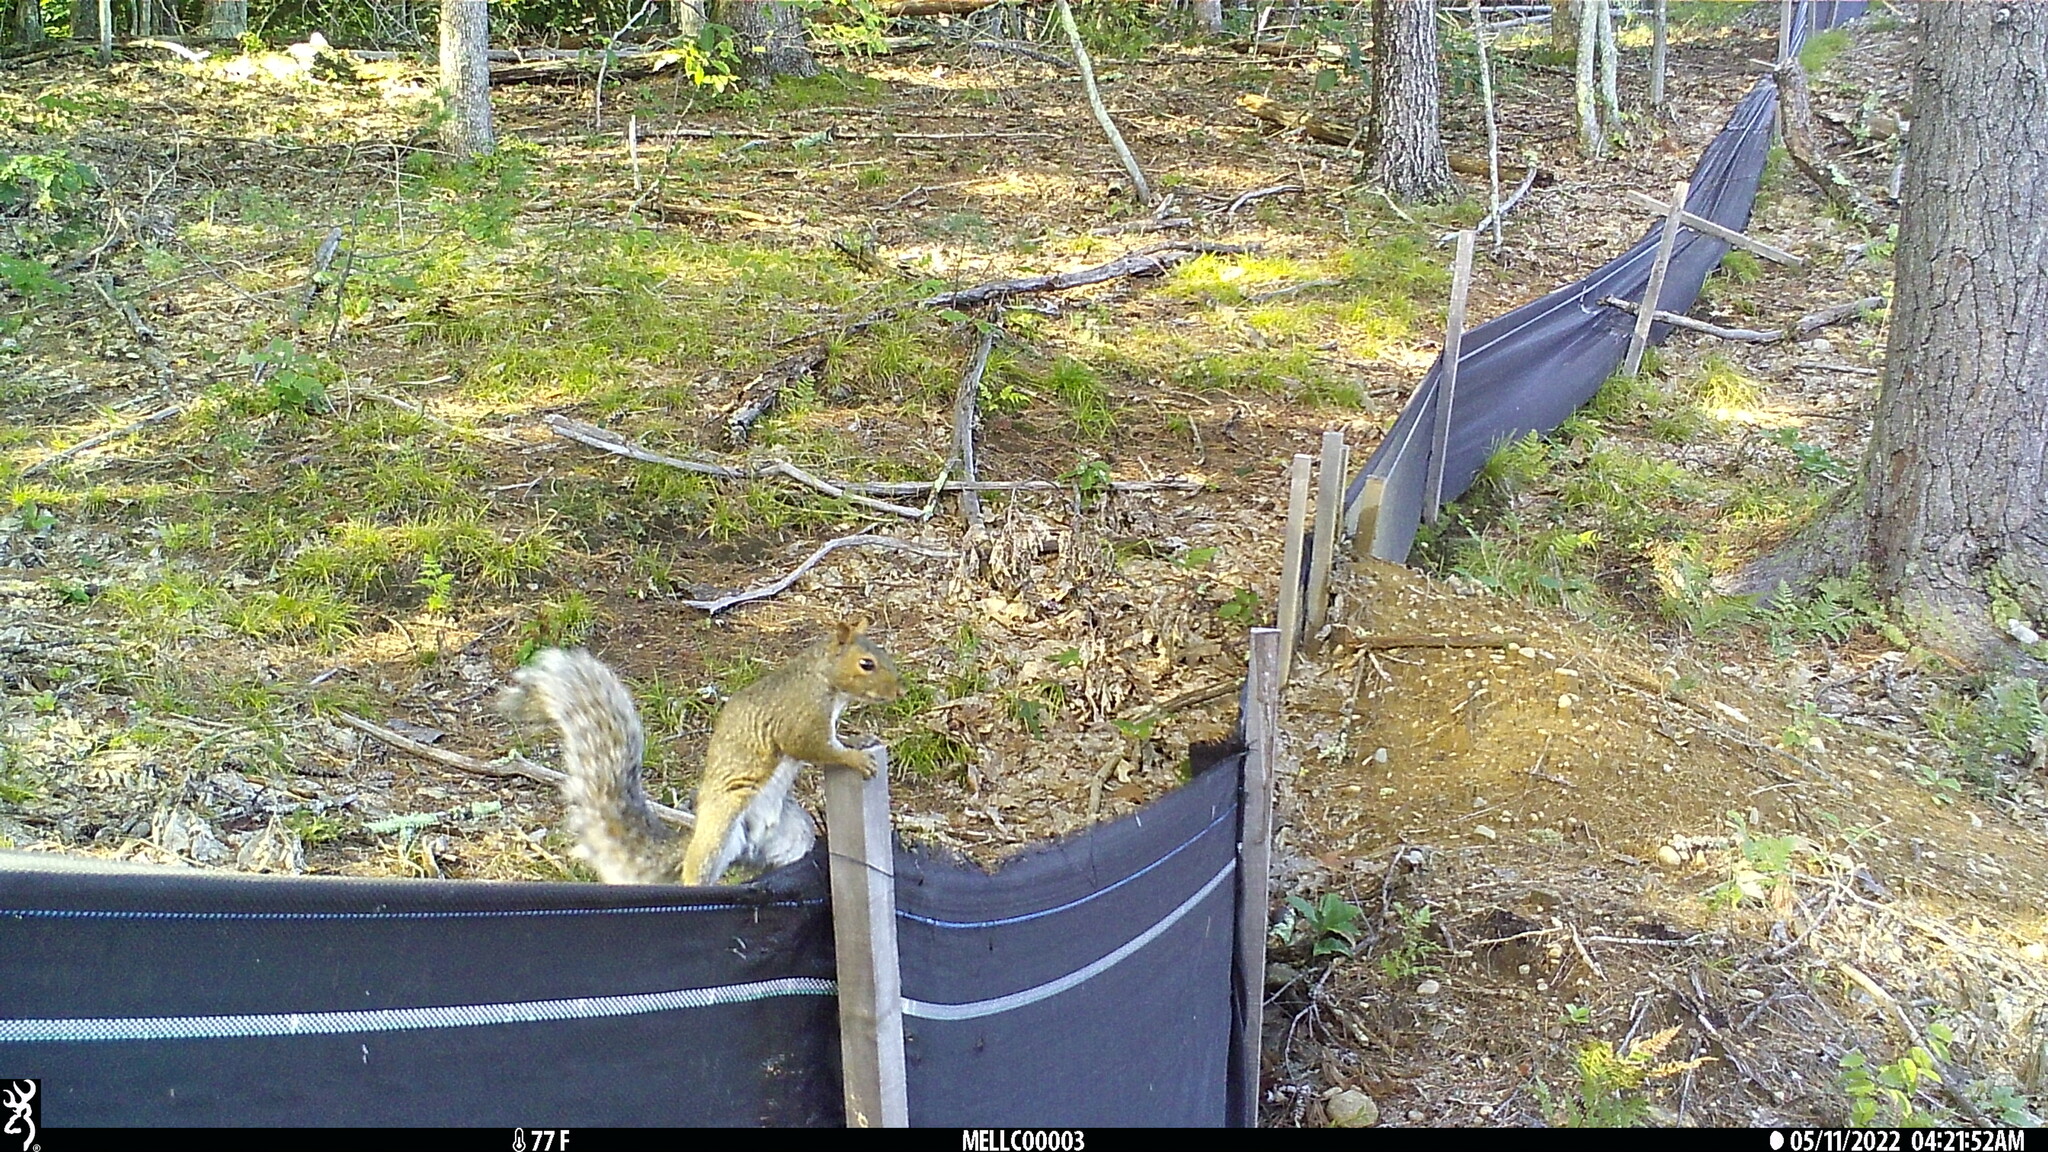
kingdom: Animalia
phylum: Chordata
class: Mammalia
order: Rodentia
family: Sciuridae
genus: Sciurus
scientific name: Sciurus carolinensis
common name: Eastern gray squirrel
